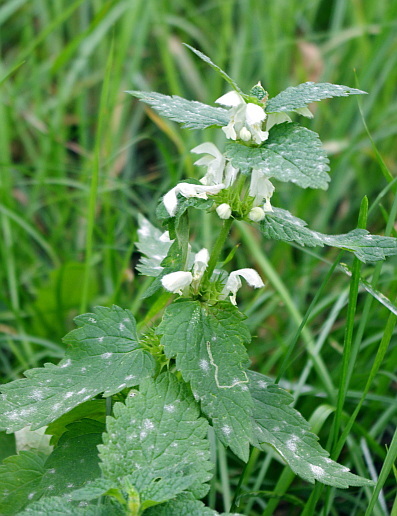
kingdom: Plantae
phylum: Tracheophyta
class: Magnoliopsida
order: Lamiales
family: Lamiaceae
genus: Lamium
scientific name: Lamium album
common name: White dead-nettle
